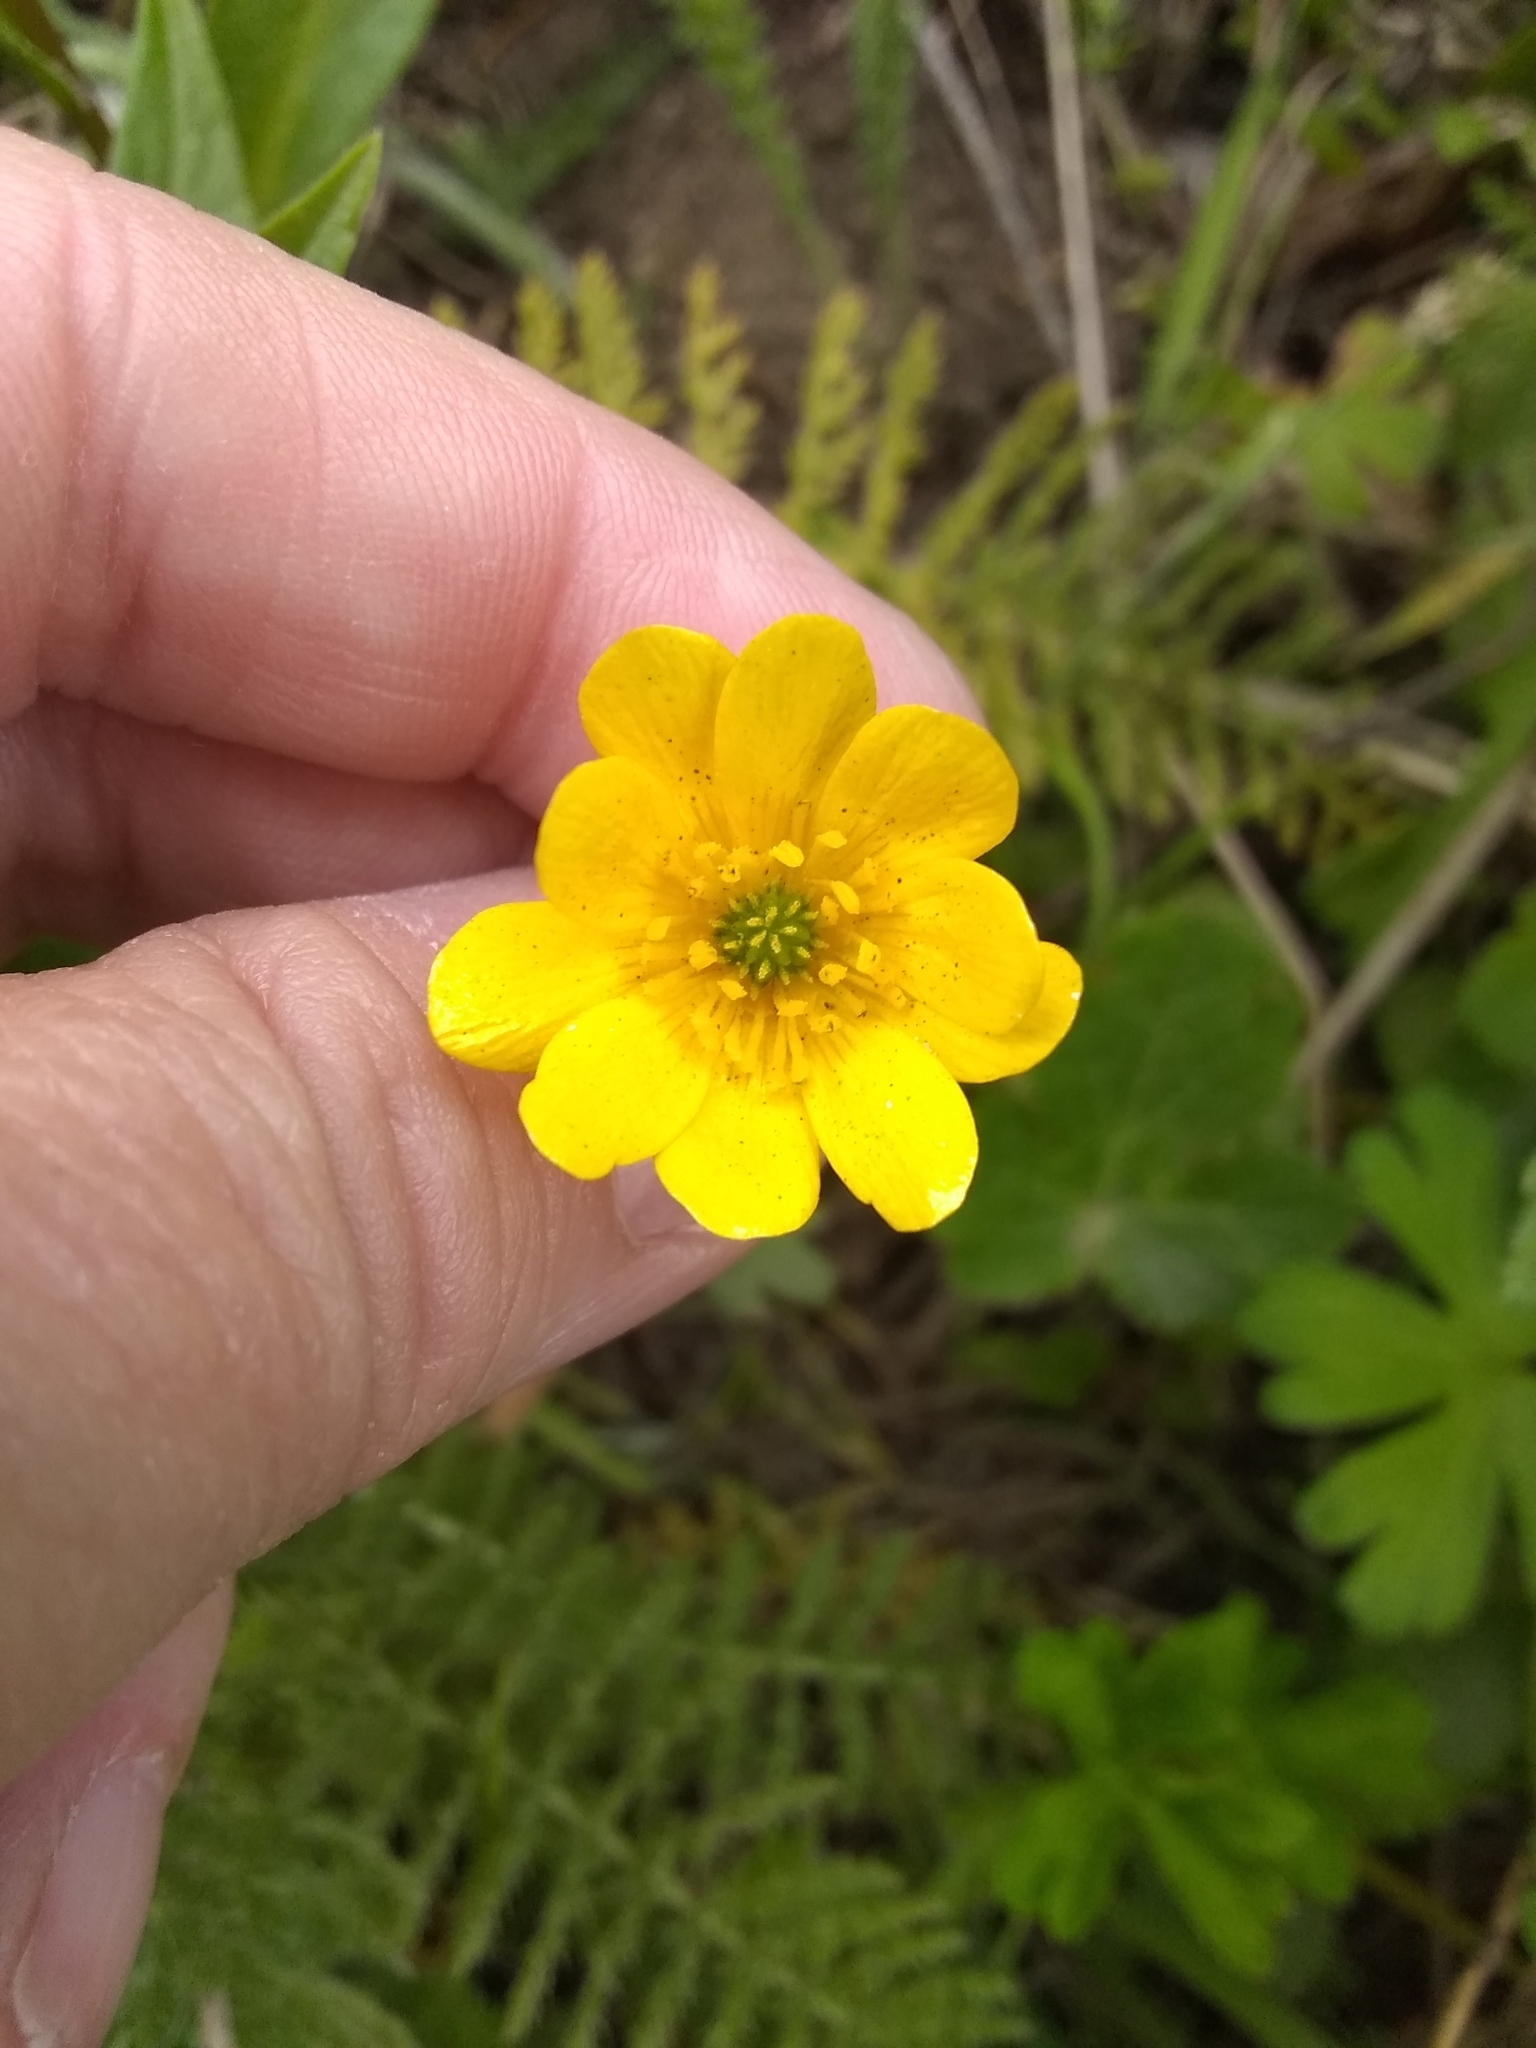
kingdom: Plantae
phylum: Tracheophyta
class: Magnoliopsida
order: Ranunculales
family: Ranunculaceae
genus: Ranunculus
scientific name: Ranunculus californicus
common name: California buttercup
